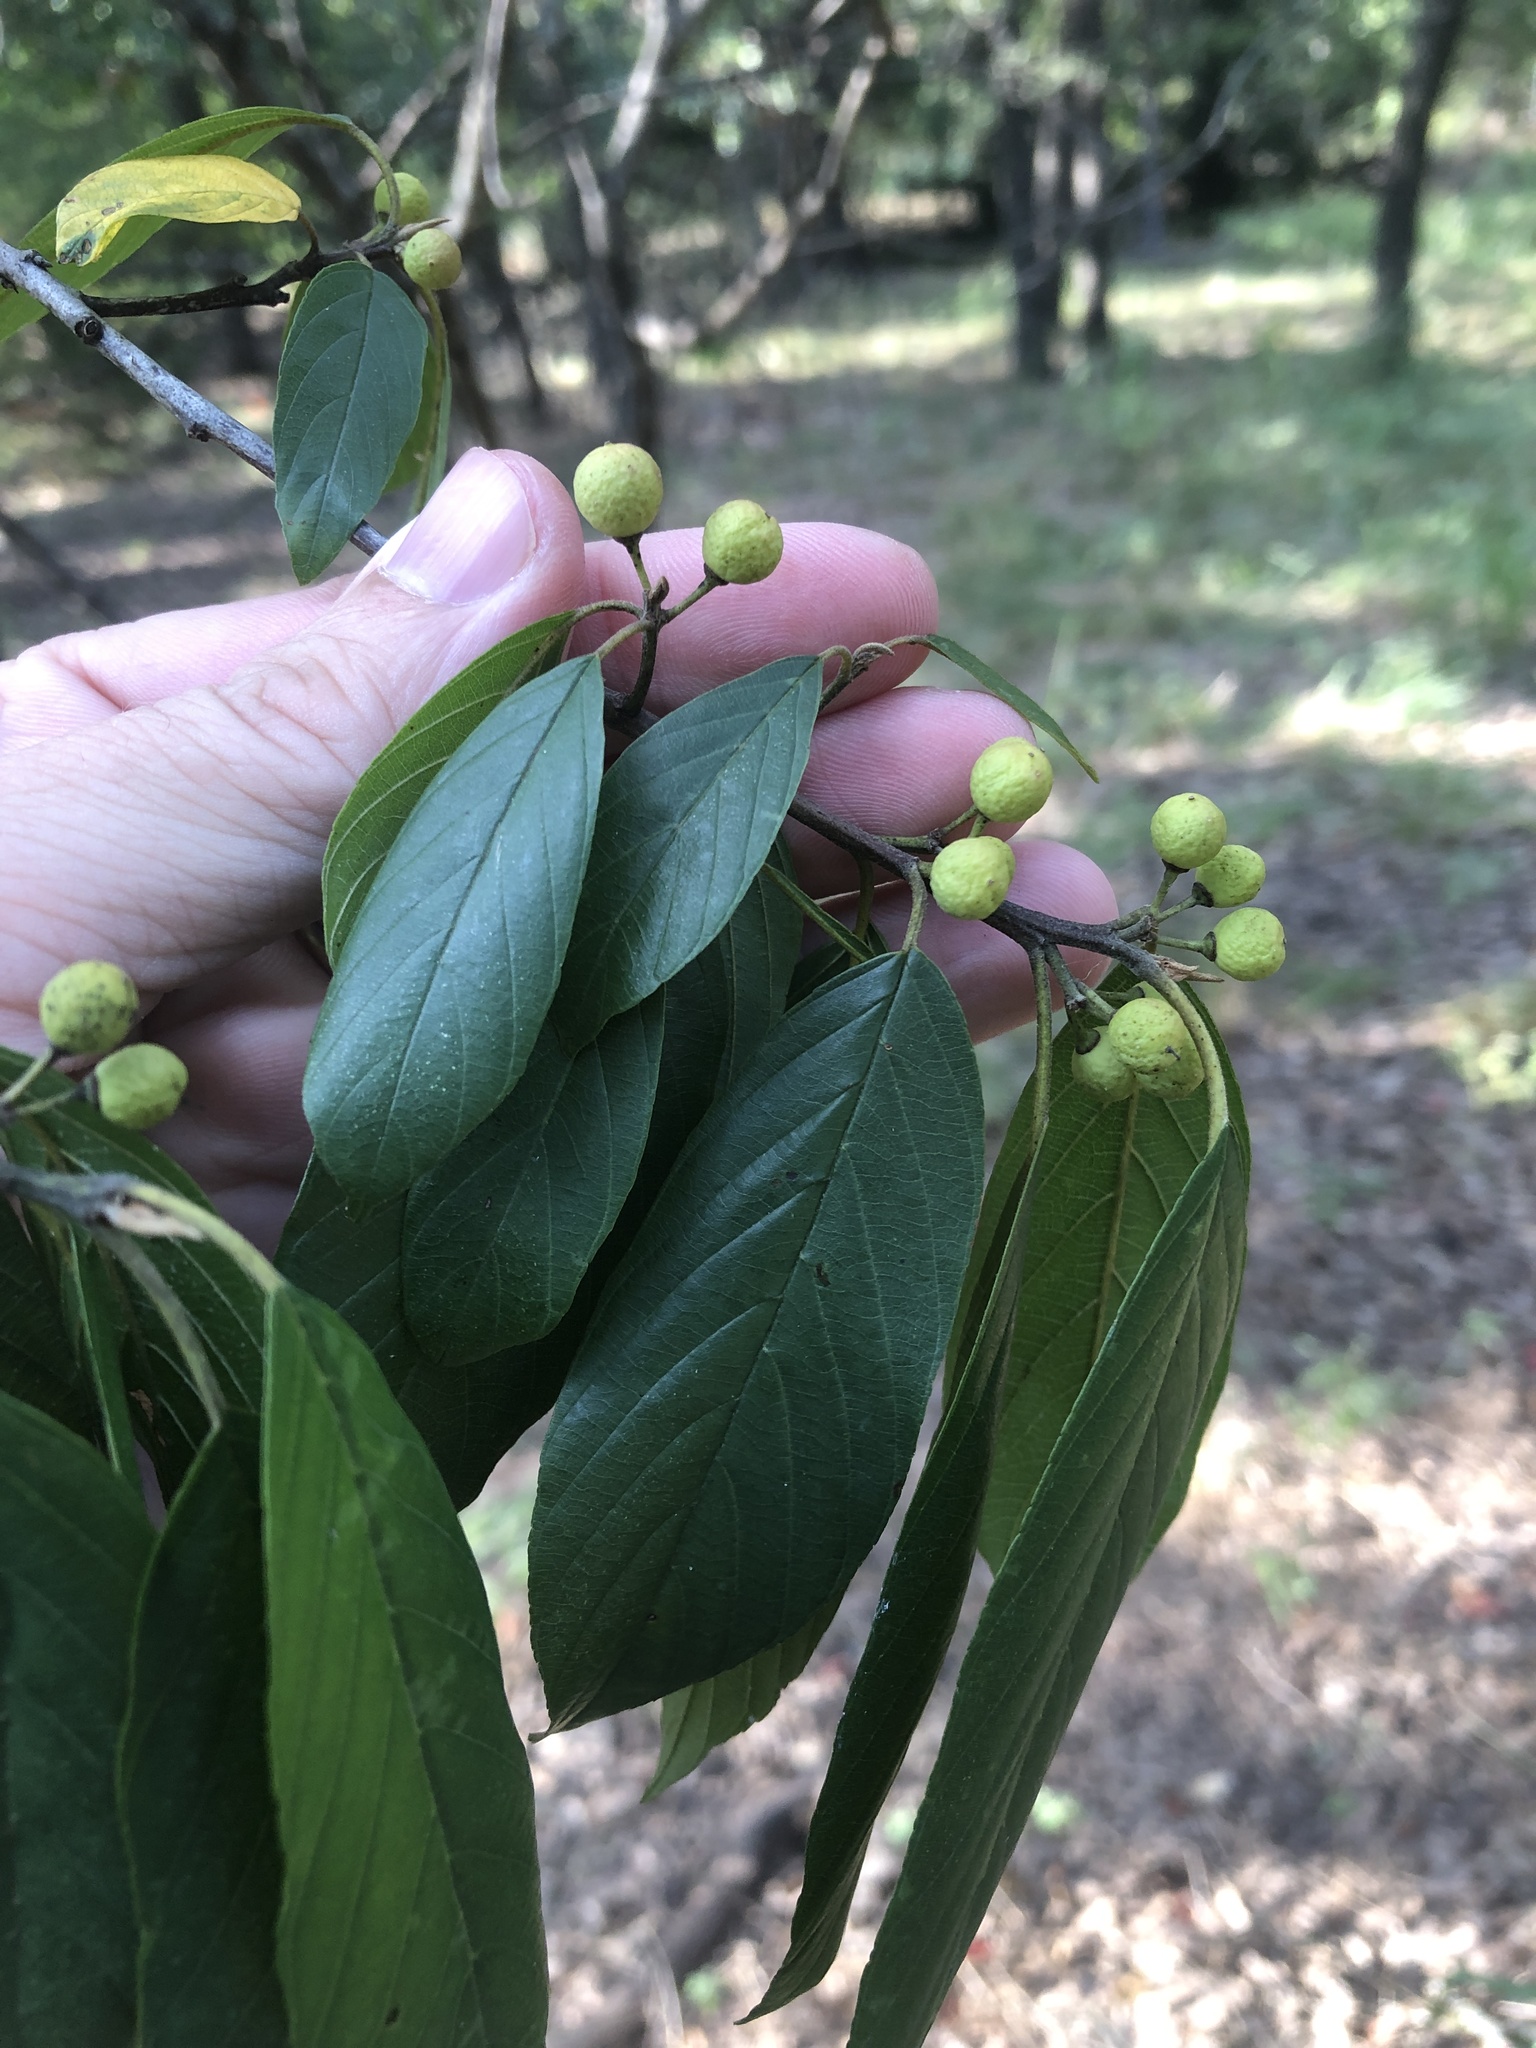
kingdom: Plantae
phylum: Tracheophyta
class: Magnoliopsida
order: Rosales
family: Rhamnaceae
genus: Frangula
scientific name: Frangula caroliniana
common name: Carolina buckthorn
